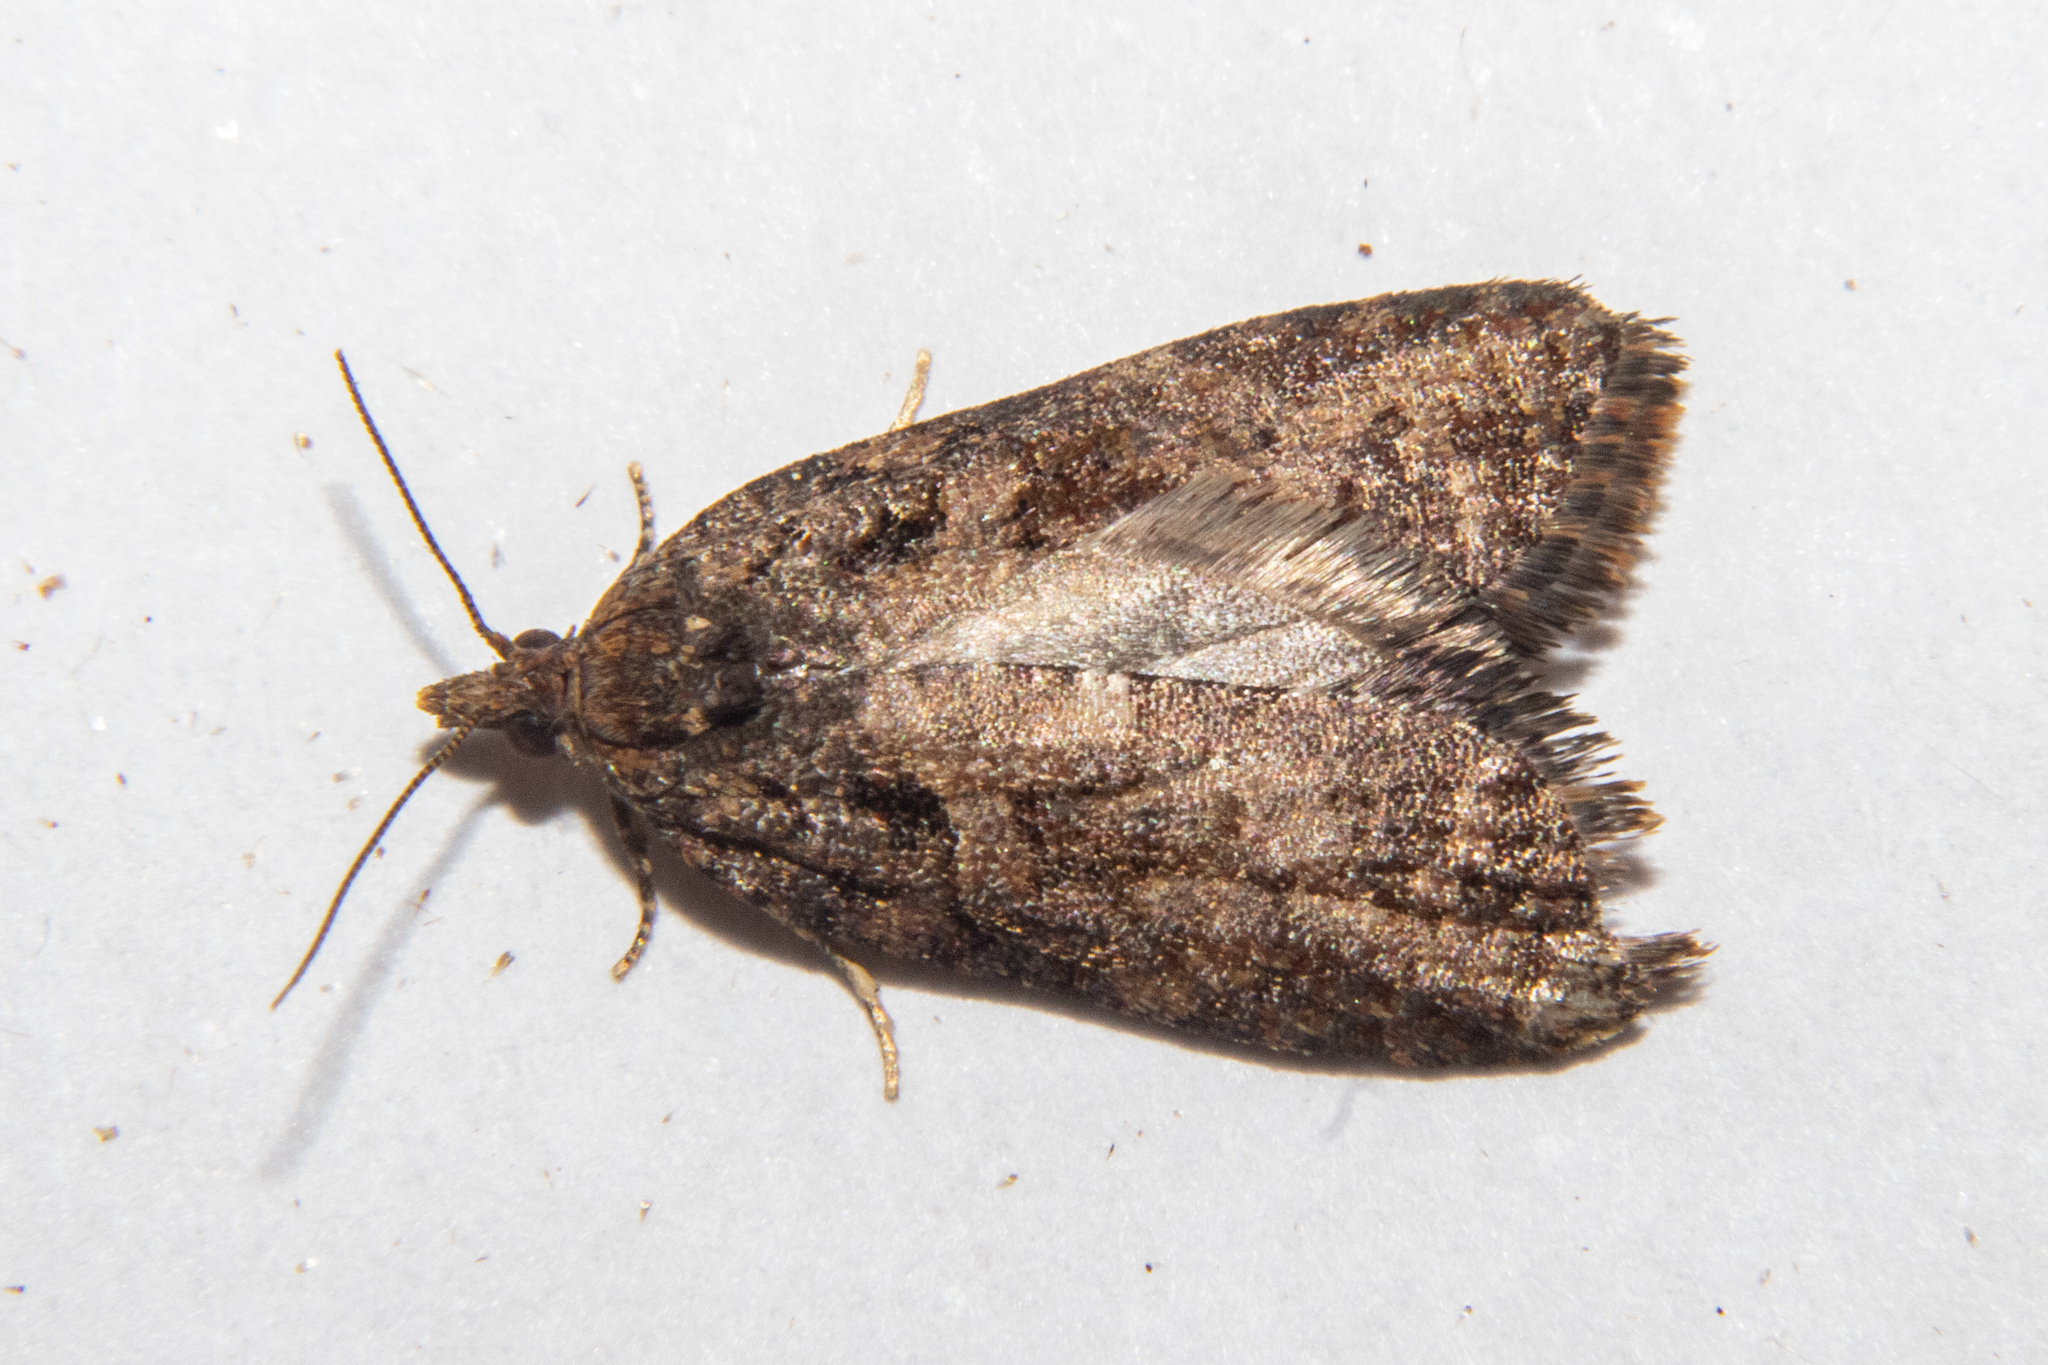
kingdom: Animalia
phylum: Arthropoda
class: Insecta
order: Lepidoptera
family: Tortricidae
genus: Capua
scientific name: Capua intractana
